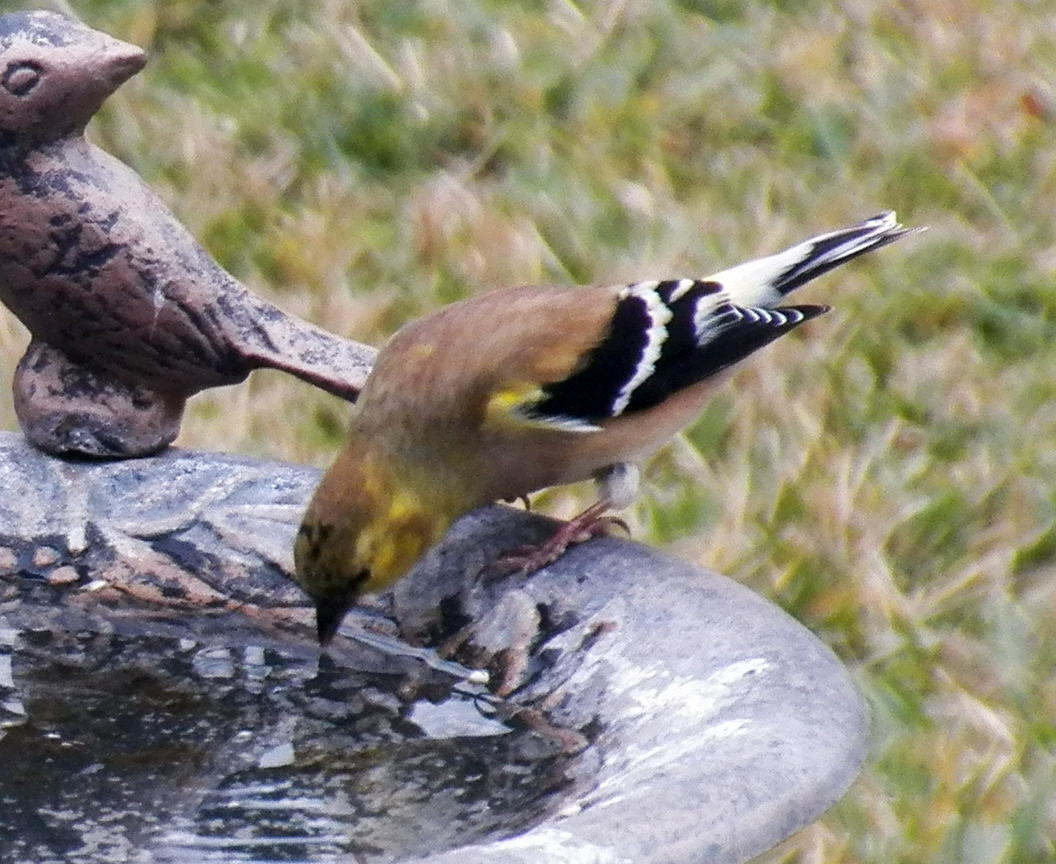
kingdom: Animalia
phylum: Chordata
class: Aves
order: Passeriformes
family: Fringillidae
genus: Spinus
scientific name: Spinus tristis
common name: American goldfinch
